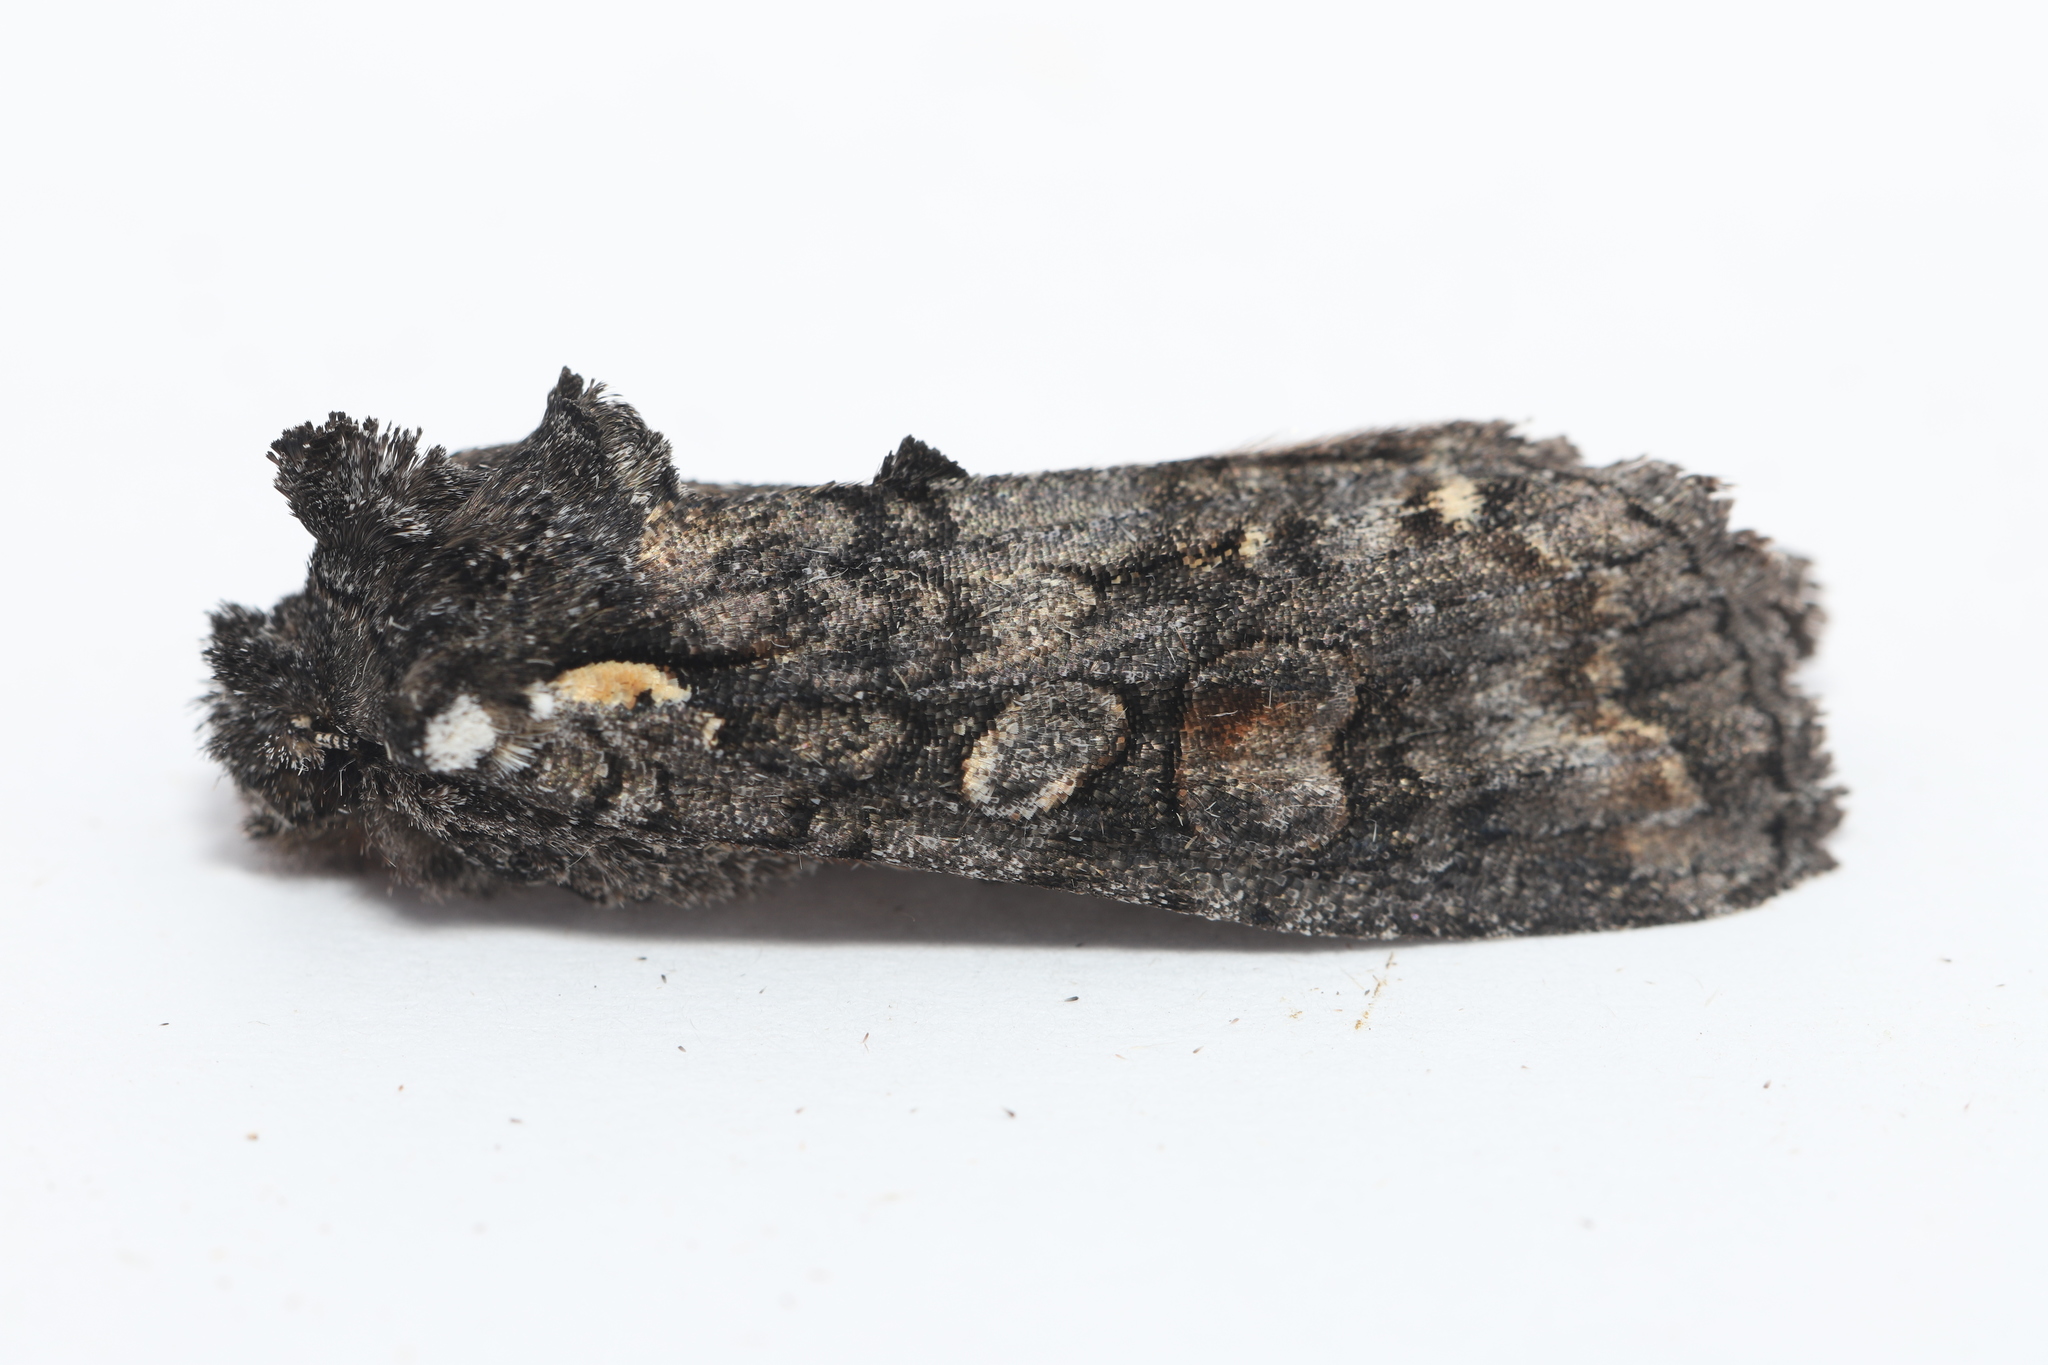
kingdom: Animalia
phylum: Arthropoda
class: Insecta
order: Lepidoptera
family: Noctuidae
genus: Lithophane
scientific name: Lithophane pexata
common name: Plush-naped pinion moth
